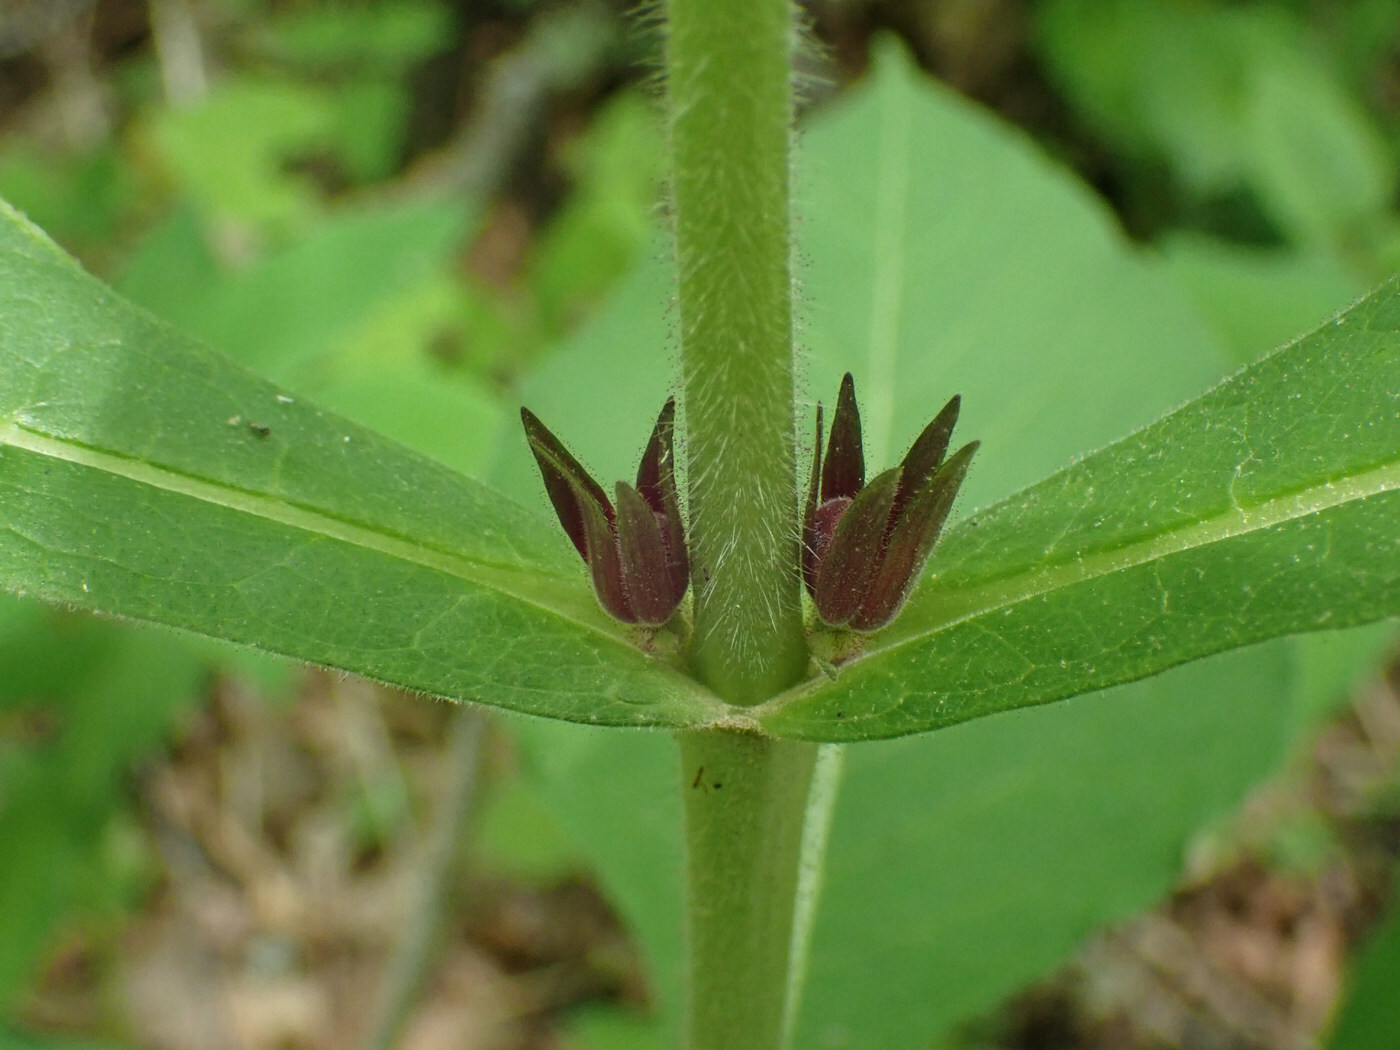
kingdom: Plantae
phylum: Tracheophyta
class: Magnoliopsida
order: Dipsacales
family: Caprifoliaceae
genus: Triosteum
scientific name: Triosteum aurantiacum
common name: Coffee tinker's-weed
